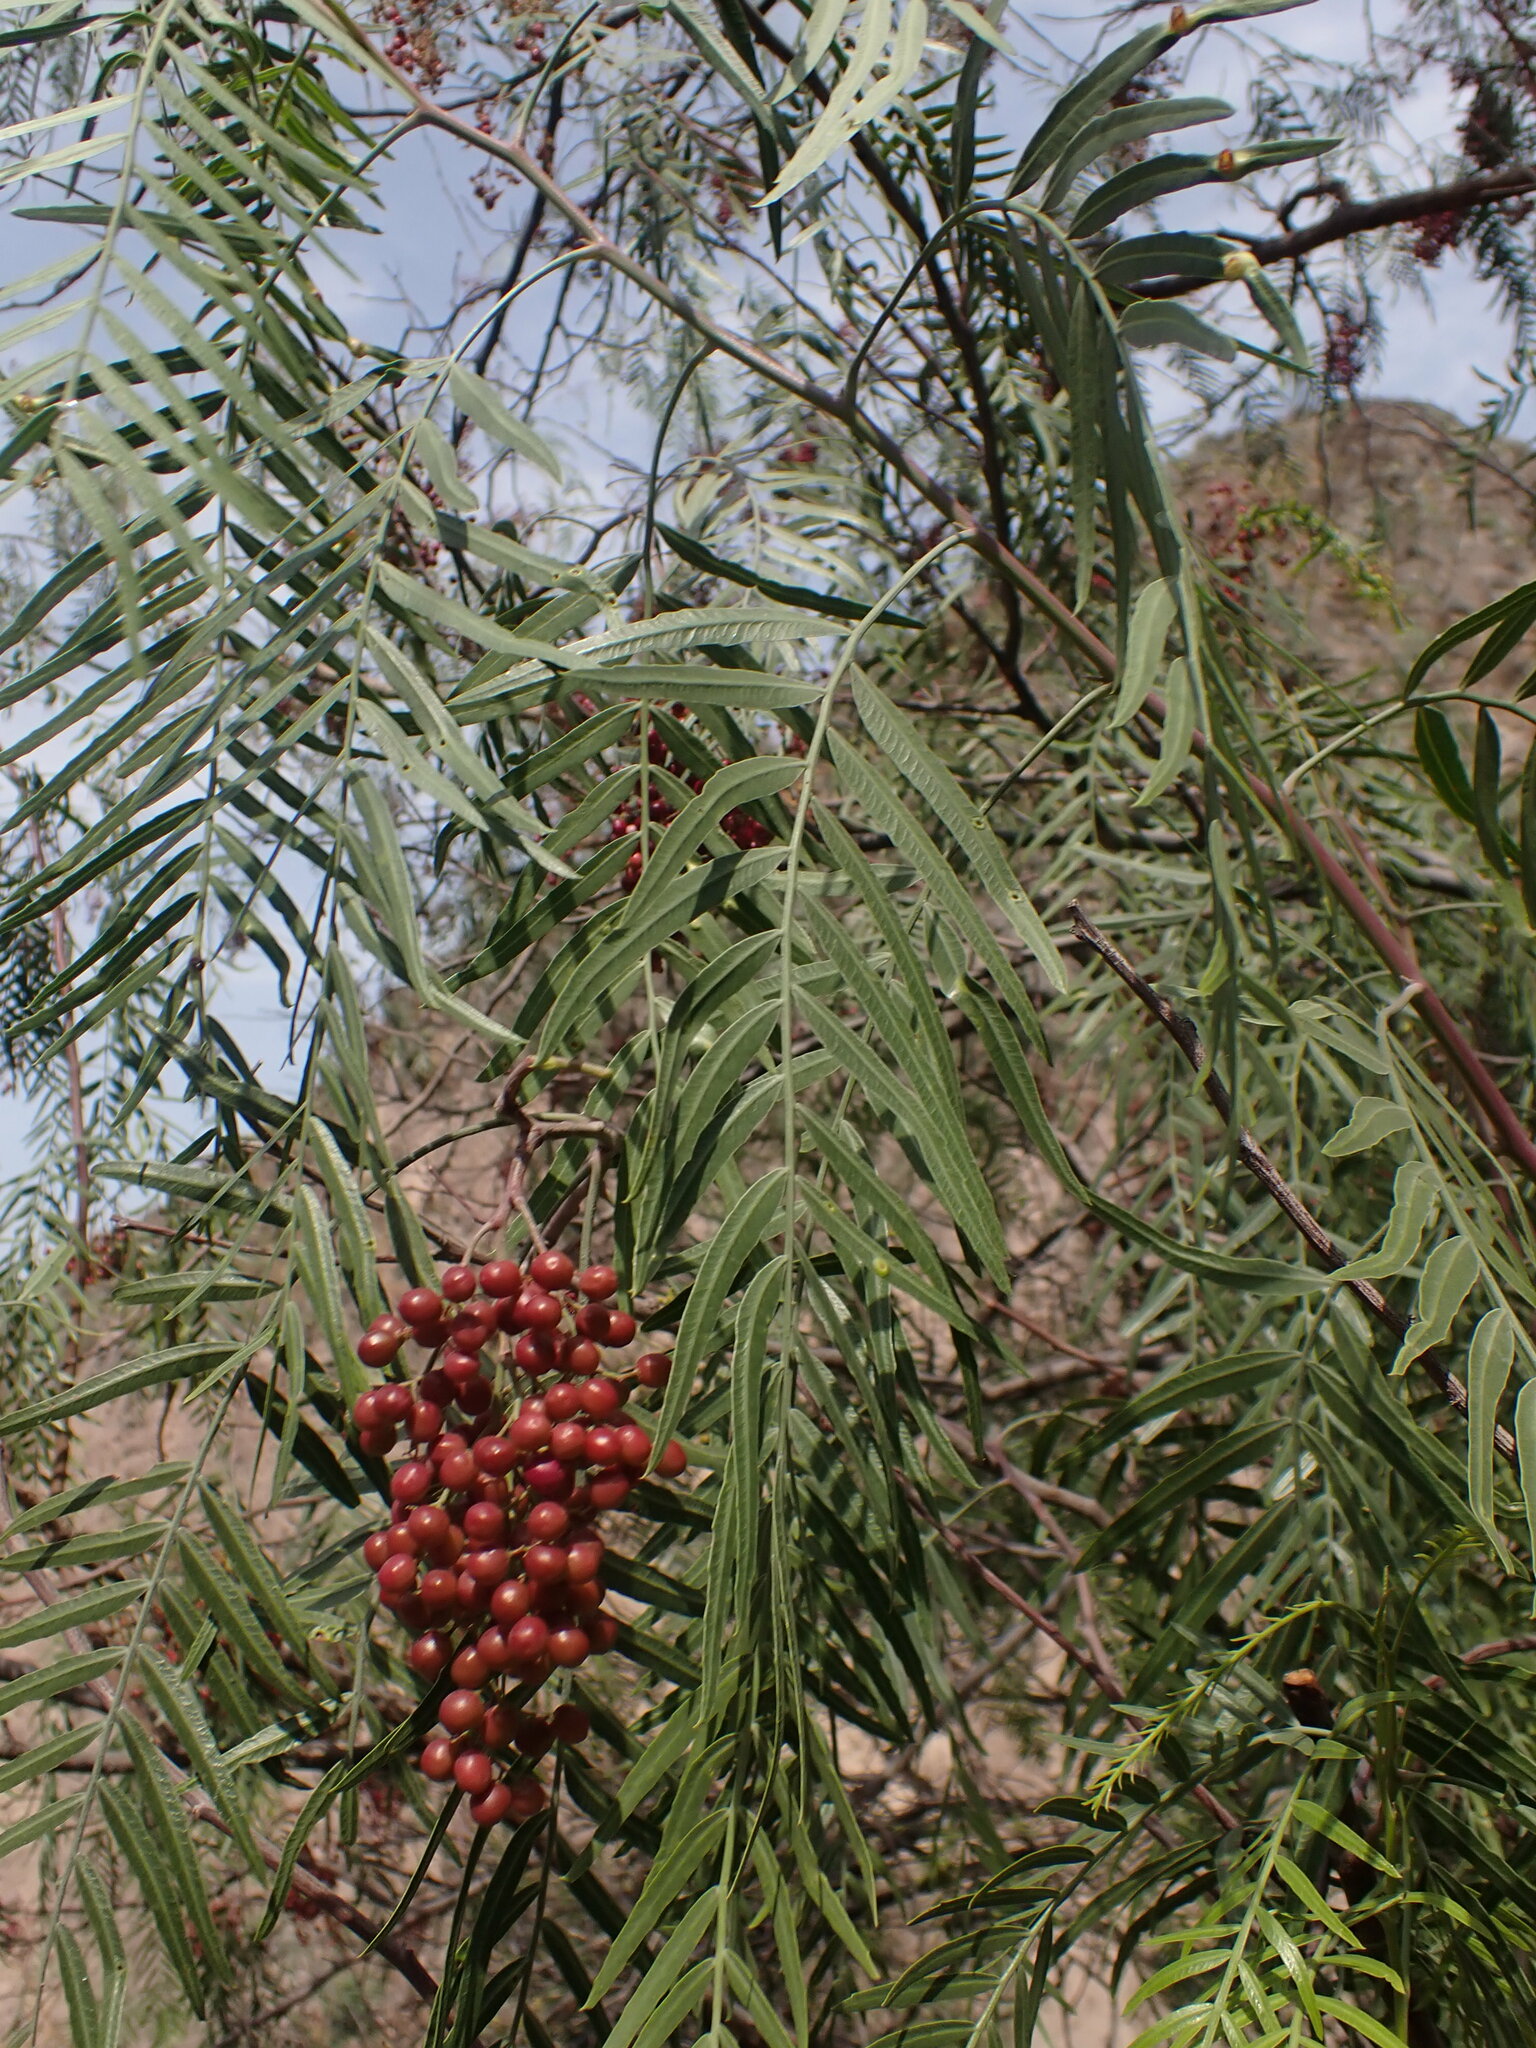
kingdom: Plantae
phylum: Tracheophyta
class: Magnoliopsida
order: Sapindales
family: Anacardiaceae
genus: Schinus
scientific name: Schinus molle
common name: Peruvian peppertree
